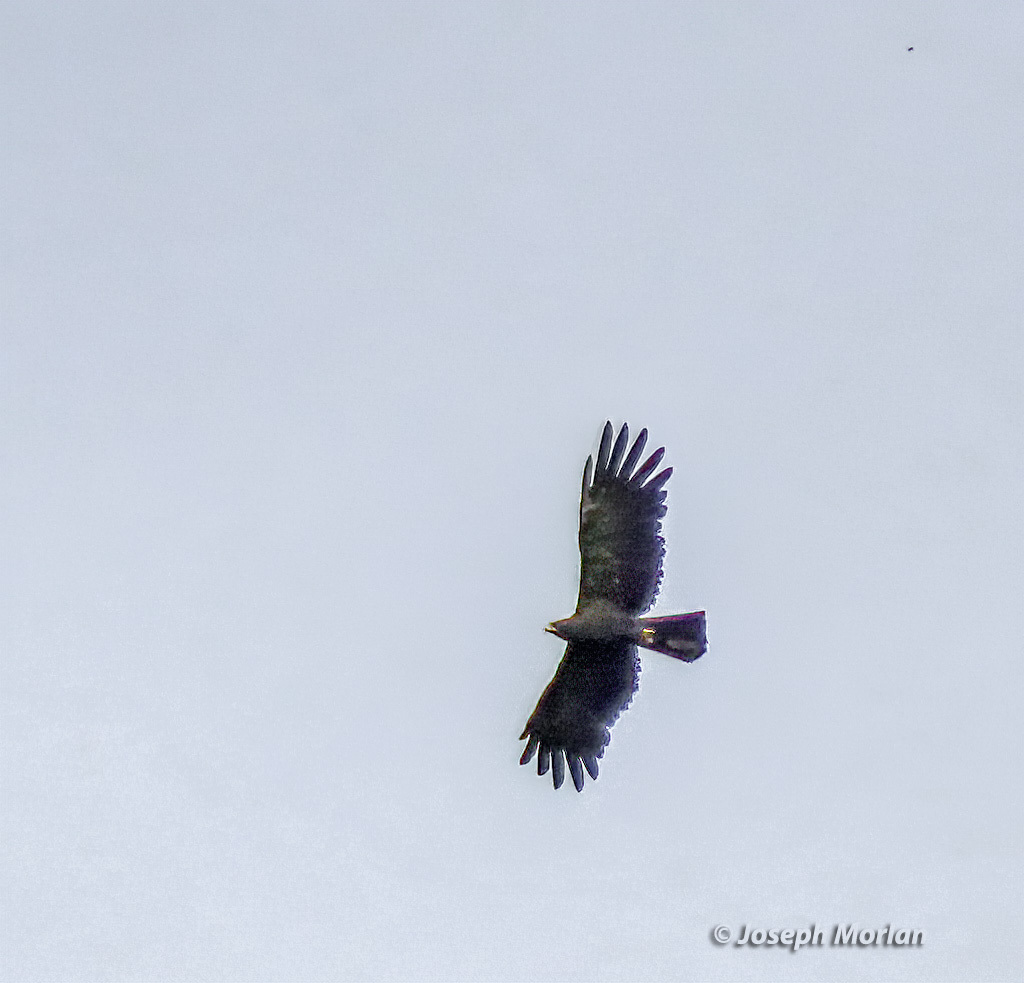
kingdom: Animalia
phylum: Chordata
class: Aves
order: Accipitriformes
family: Accipitridae
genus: Ictinaetus
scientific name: Ictinaetus malayensis
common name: Black eagle
